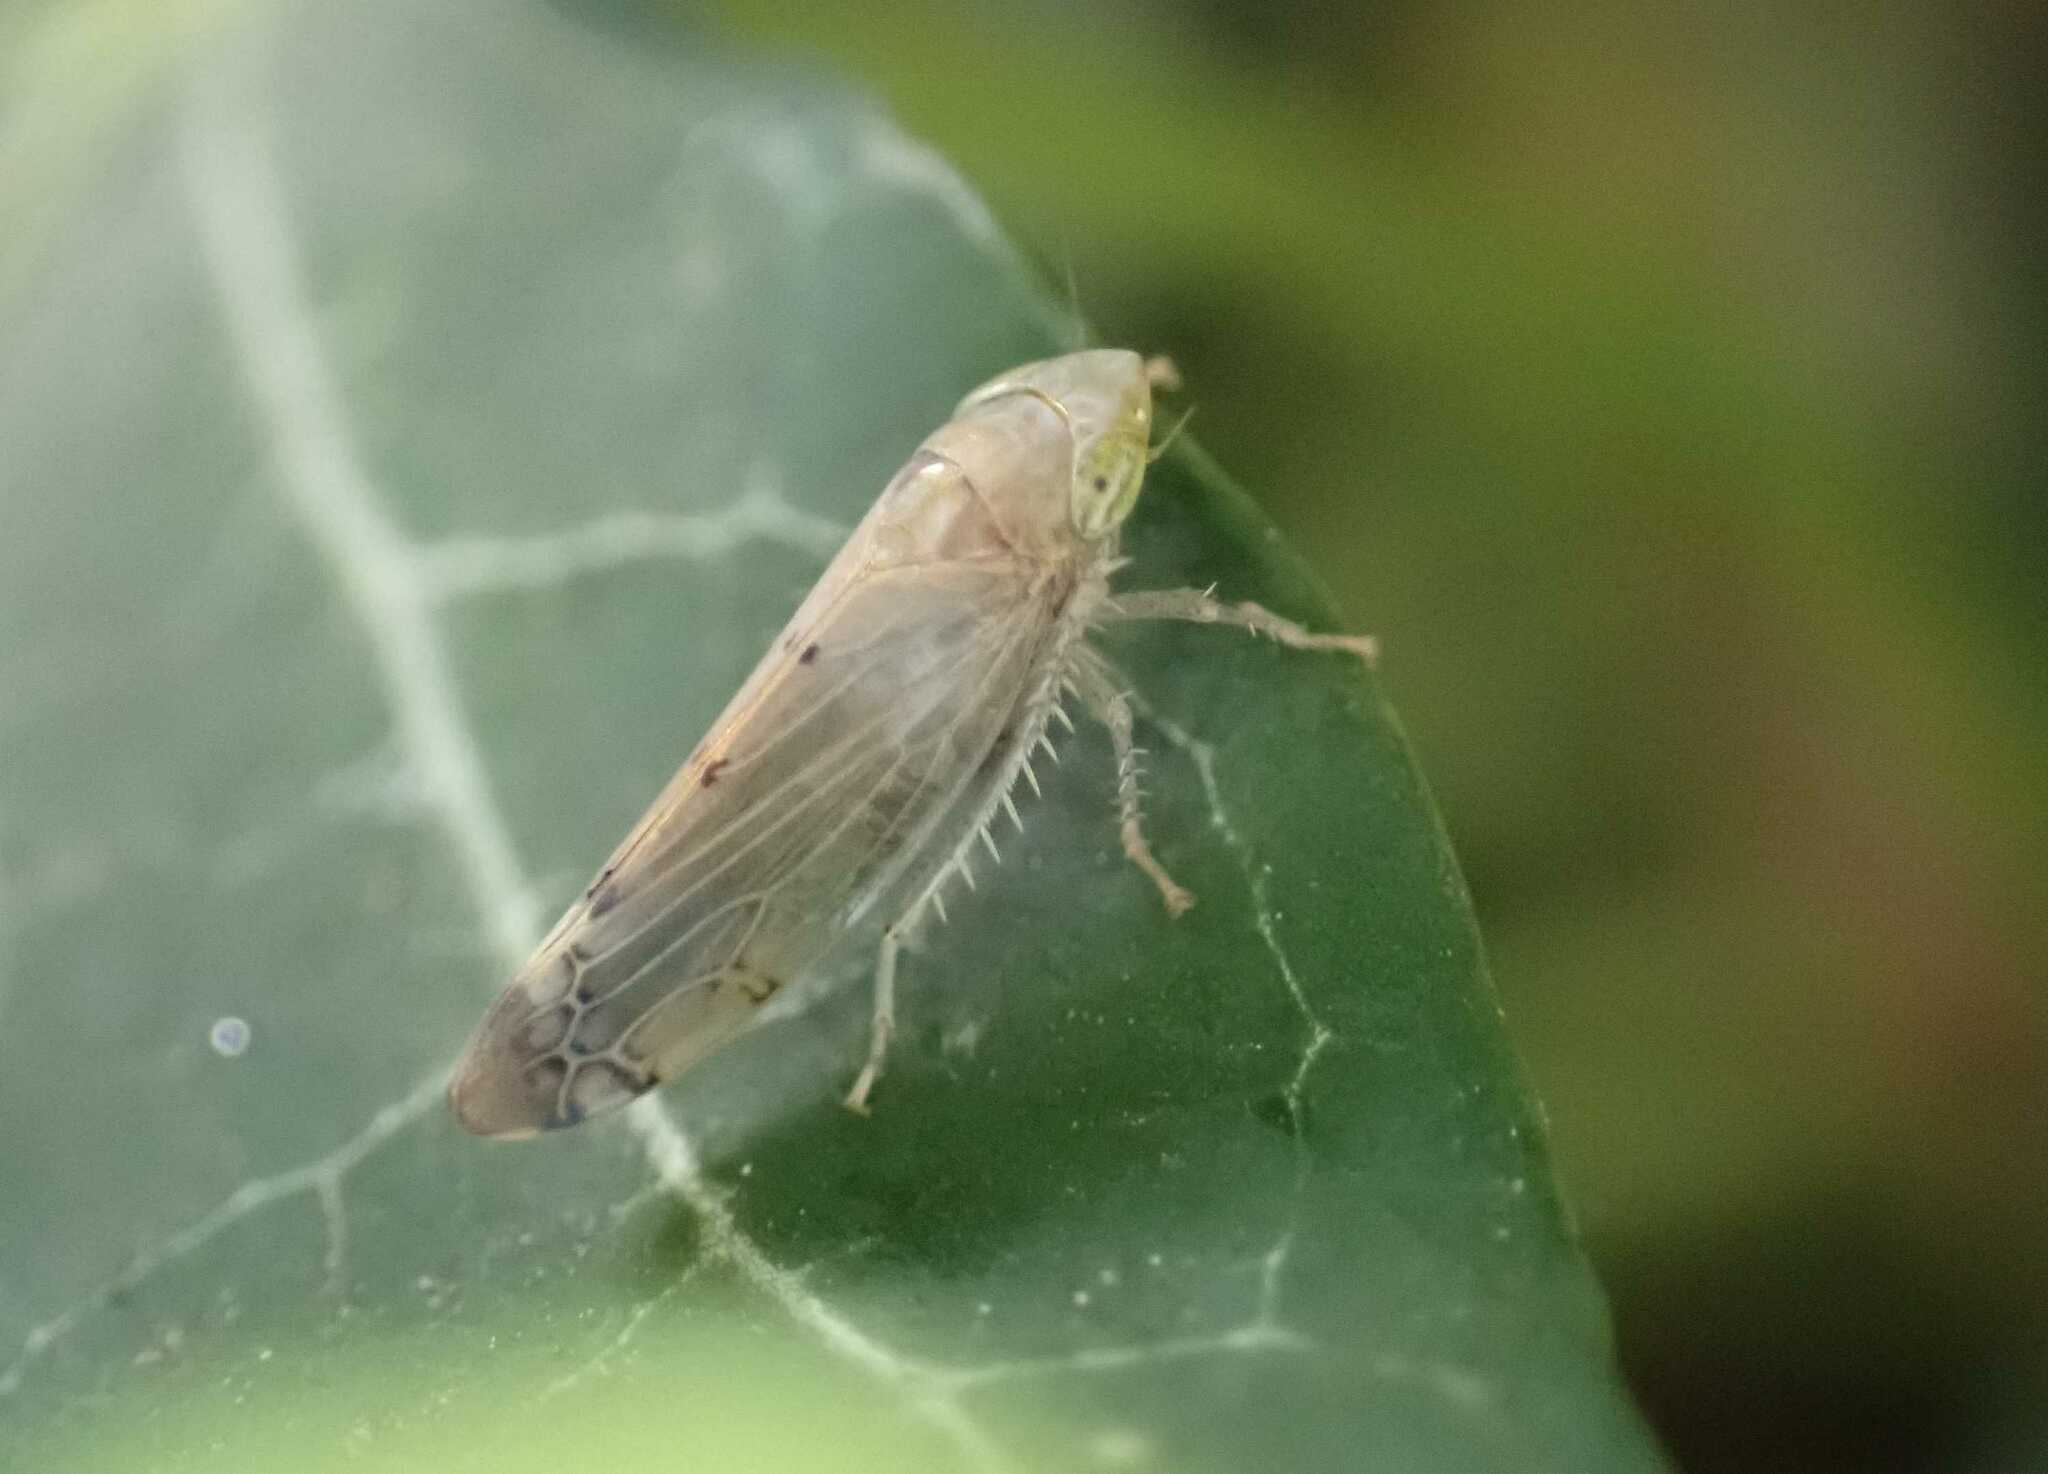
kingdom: Animalia
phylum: Arthropoda
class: Insecta
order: Hemiptera
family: Cicadellidae
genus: Synophropsis
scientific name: Synophropsis lauri
